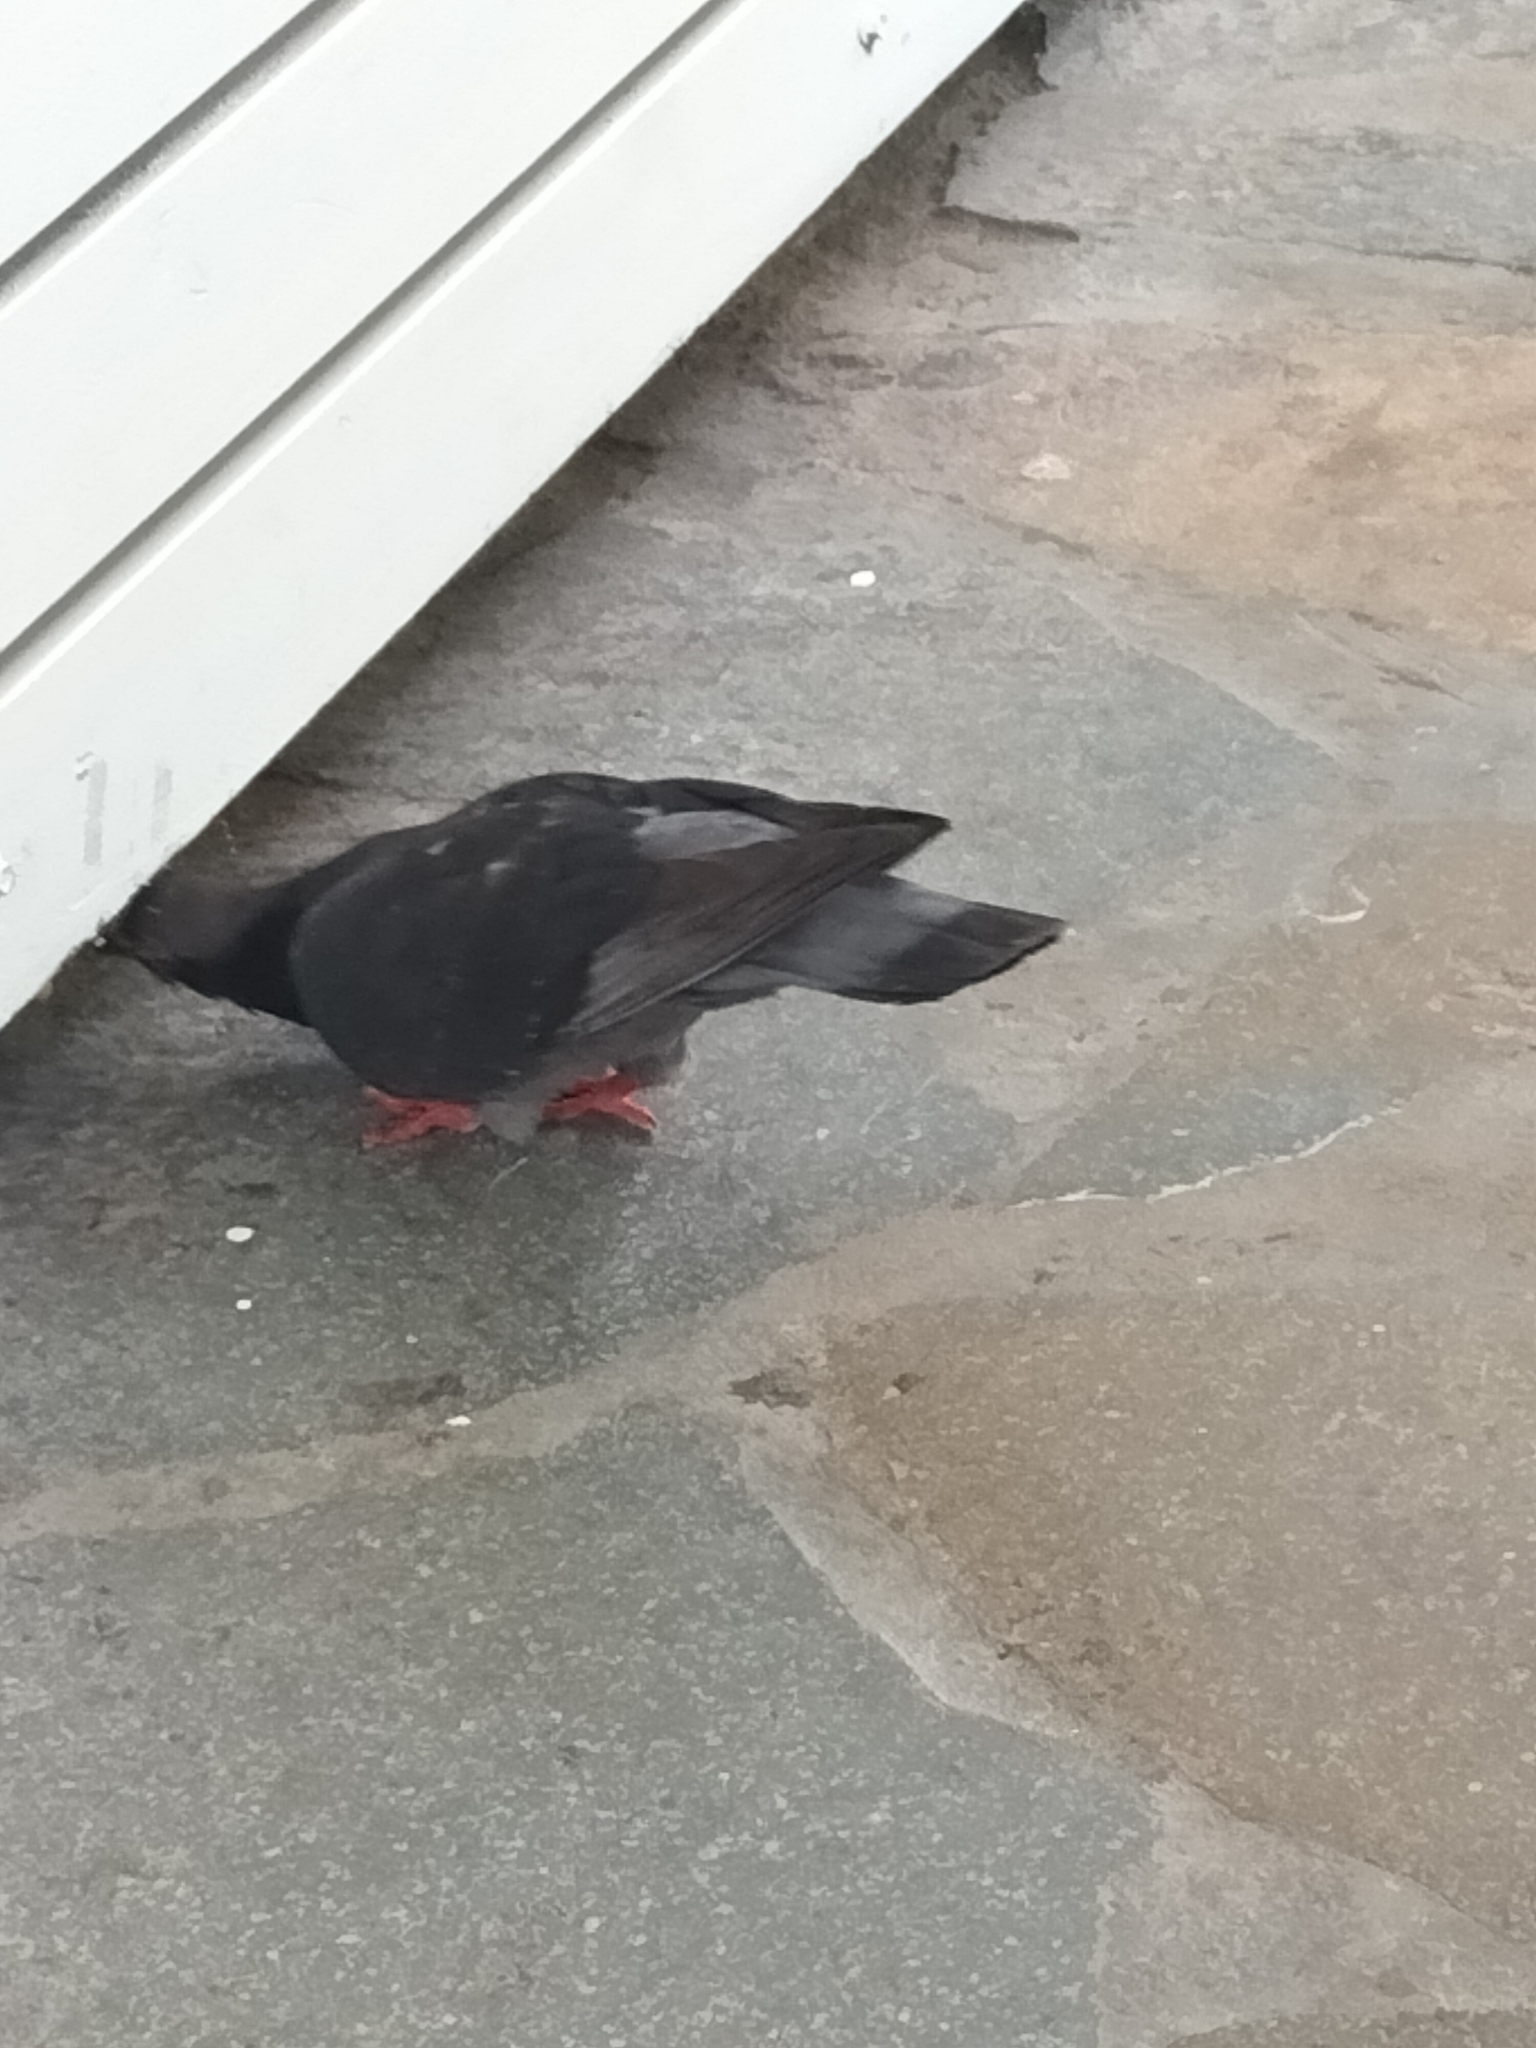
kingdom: Animalia
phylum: Chordata
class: Aves
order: Columbiformes
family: Columbidae
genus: Columba
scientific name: Columba livia
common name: Rock pigeon
